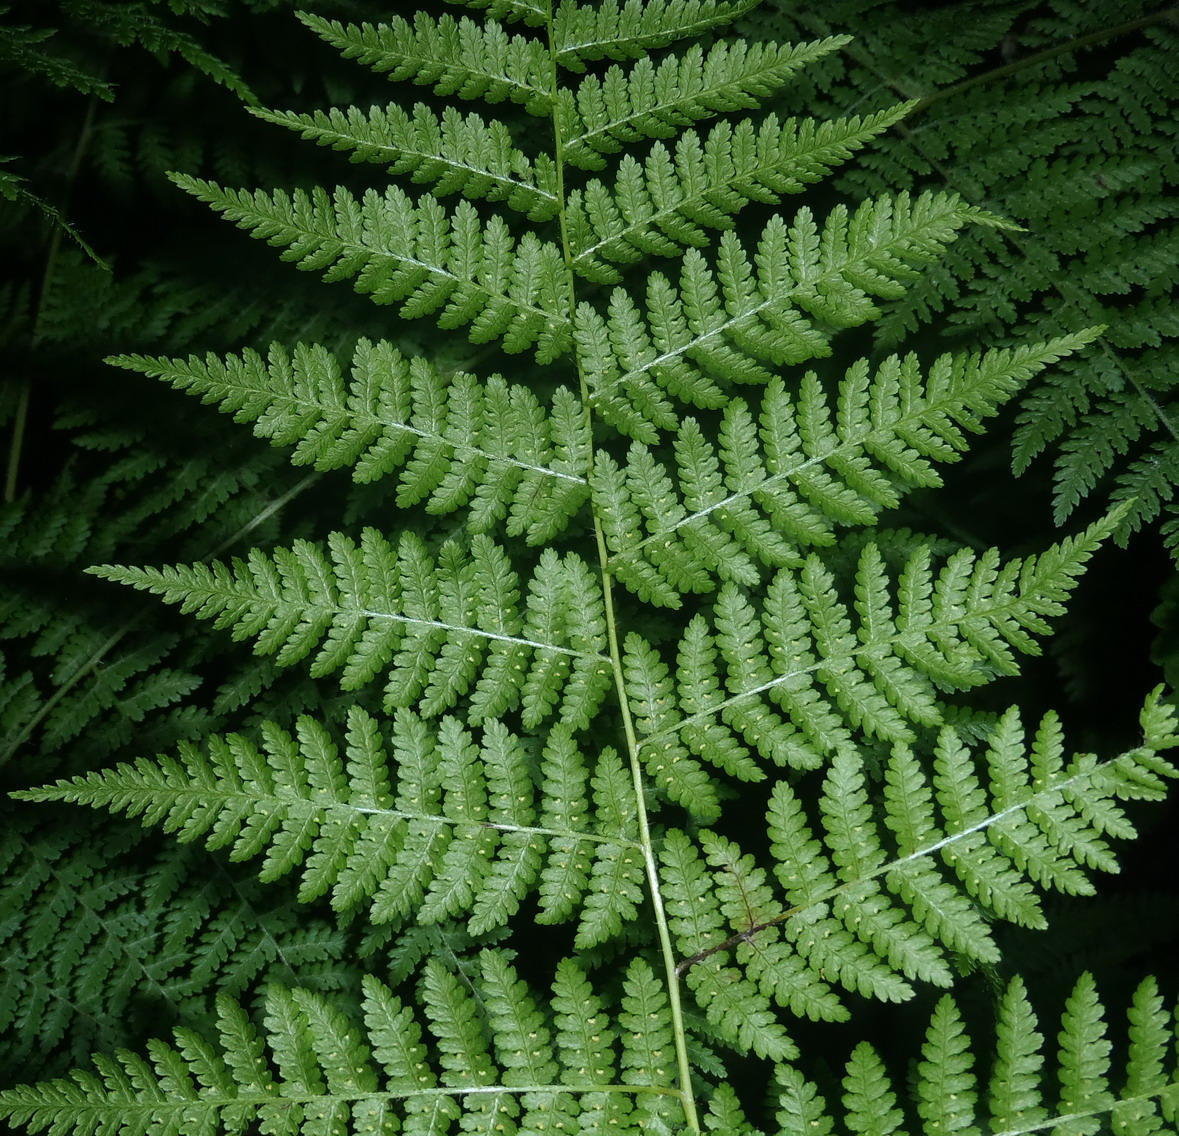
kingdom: Plantae
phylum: Tracheophyta
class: Polypodiopsida
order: Polypodiales
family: Dennstaedtiaceae
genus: Hypolepis
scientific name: Hypolepis sparsisora
